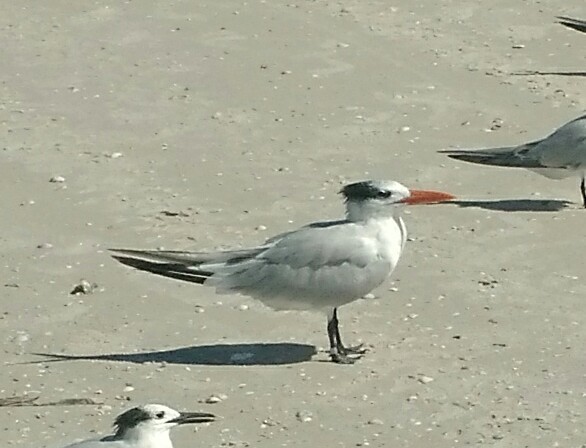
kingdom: Animalia
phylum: Chordata
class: Aves
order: Charadriiformes
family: Laridae
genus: Thalasseus
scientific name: Thalasseus maximus
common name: Royal tern
